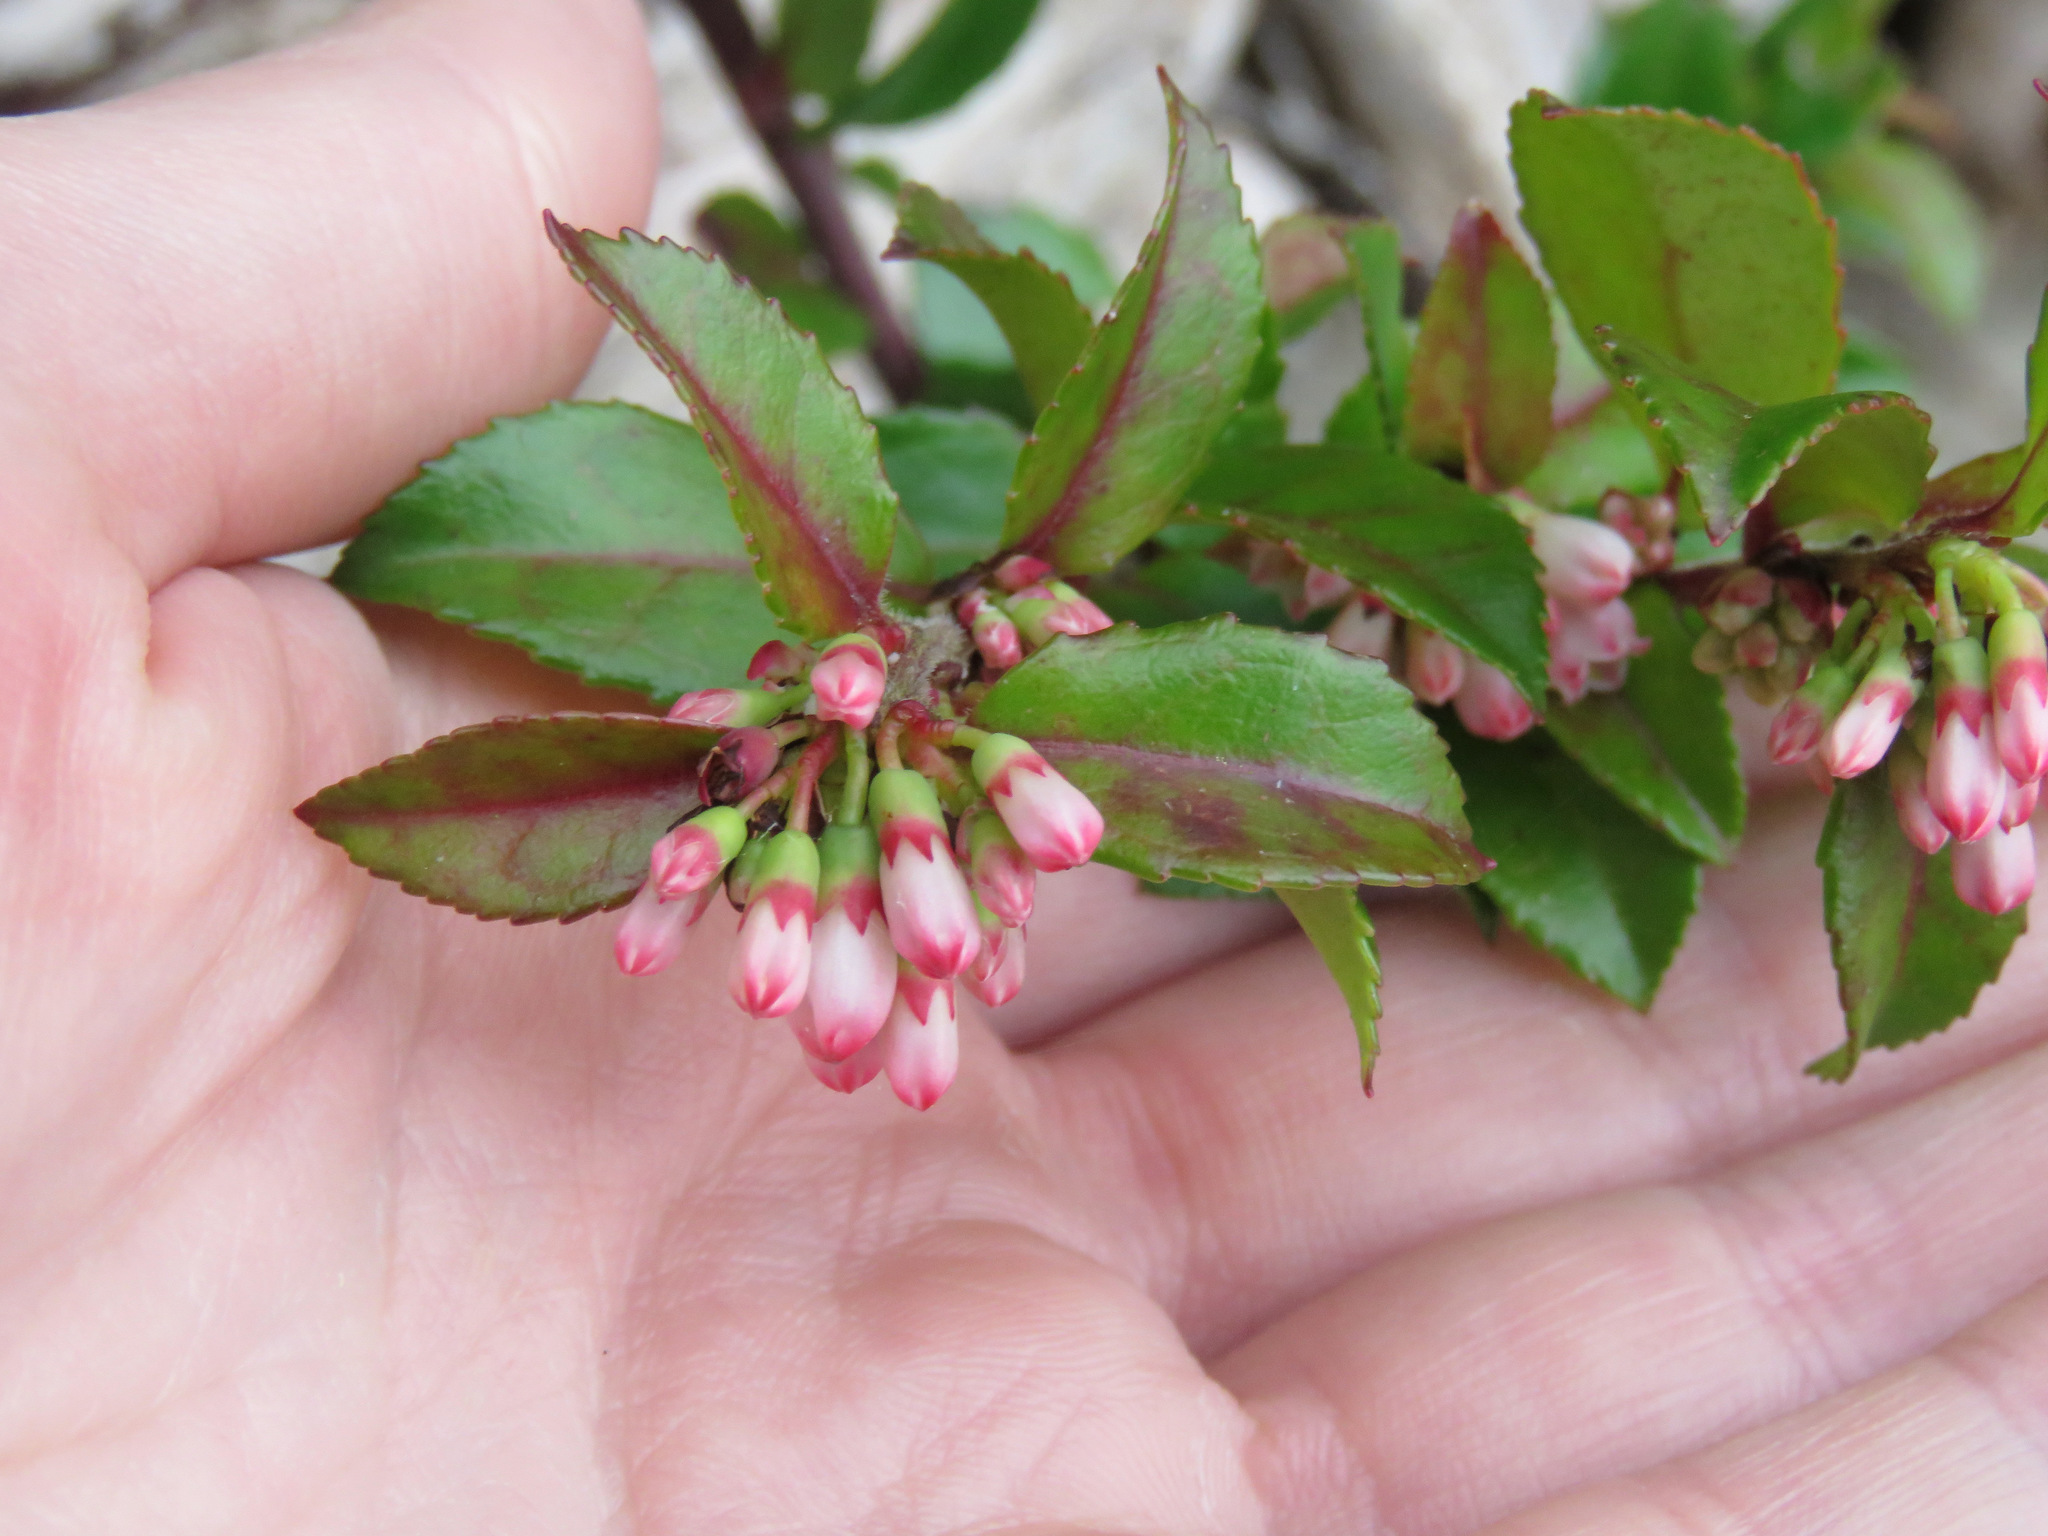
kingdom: Plantae
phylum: Tracheophyta
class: Magnoliopsida
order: Ericales
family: Ericaceae
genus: Vaccinium
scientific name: Vaccinium ovatum
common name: California-huckleberry
